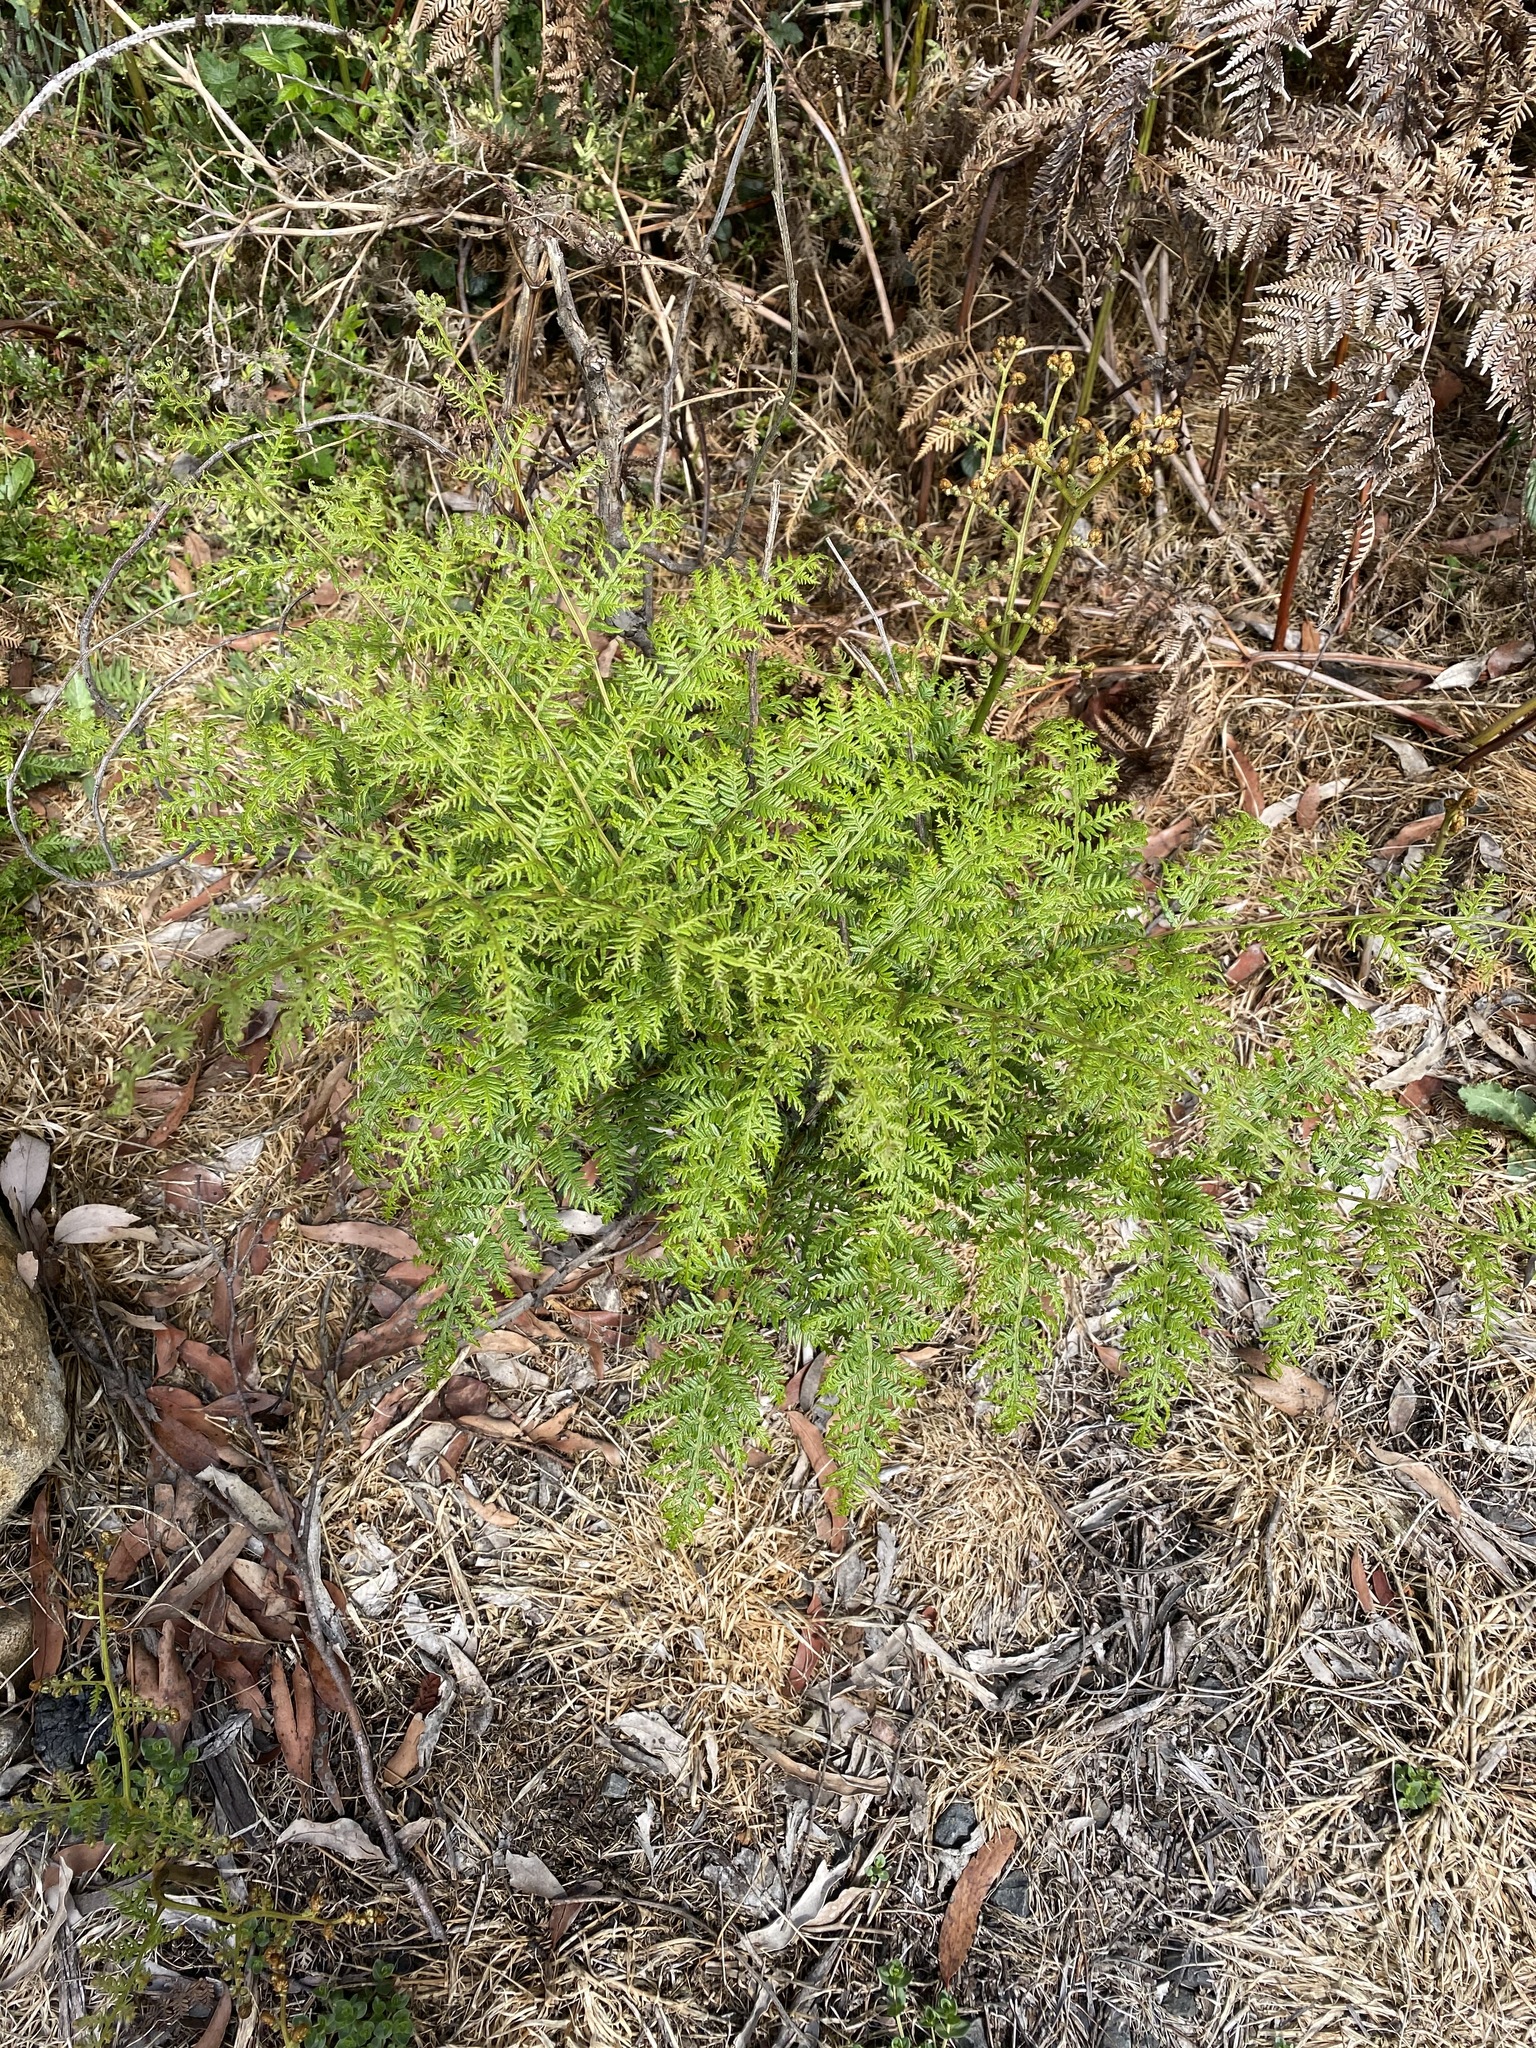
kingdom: Plantae
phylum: Tracheophyta
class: Polypodiopsida
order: Polypodiales
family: Dennstaedtiaceae
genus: Pteridium
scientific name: Pteridium esculentum
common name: Bracken fern
